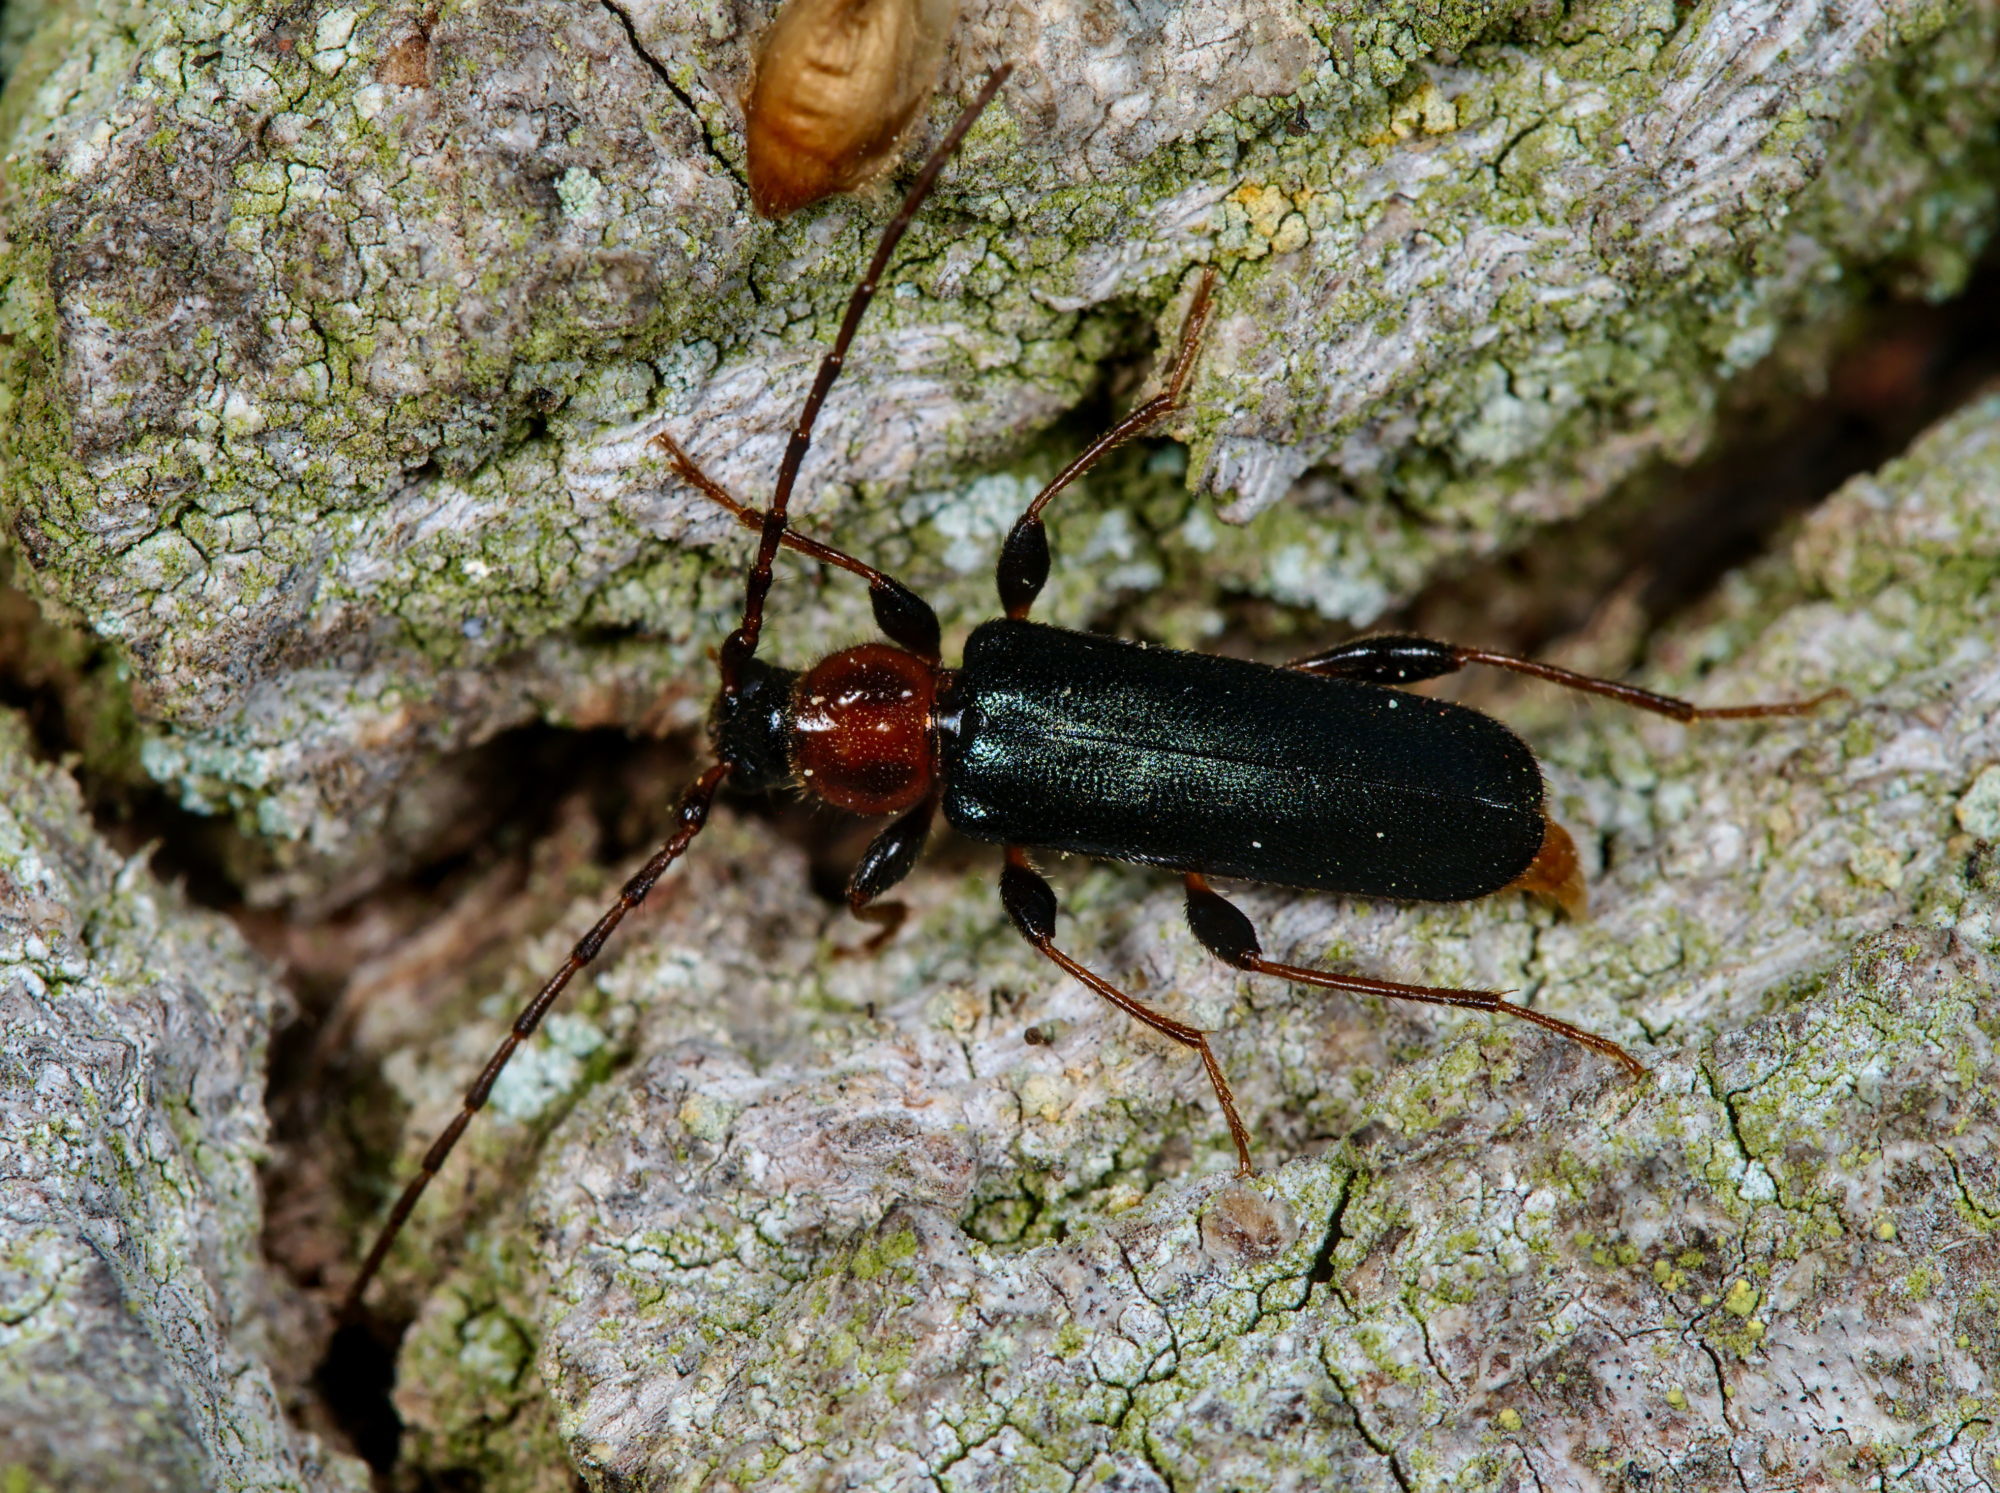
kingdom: Animalia
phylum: Arthropoda
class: Insecta
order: Coleoptera
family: Cerambycidae
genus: Phymatodes
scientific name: Phymatodes testaceus
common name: Long-horned beetle
